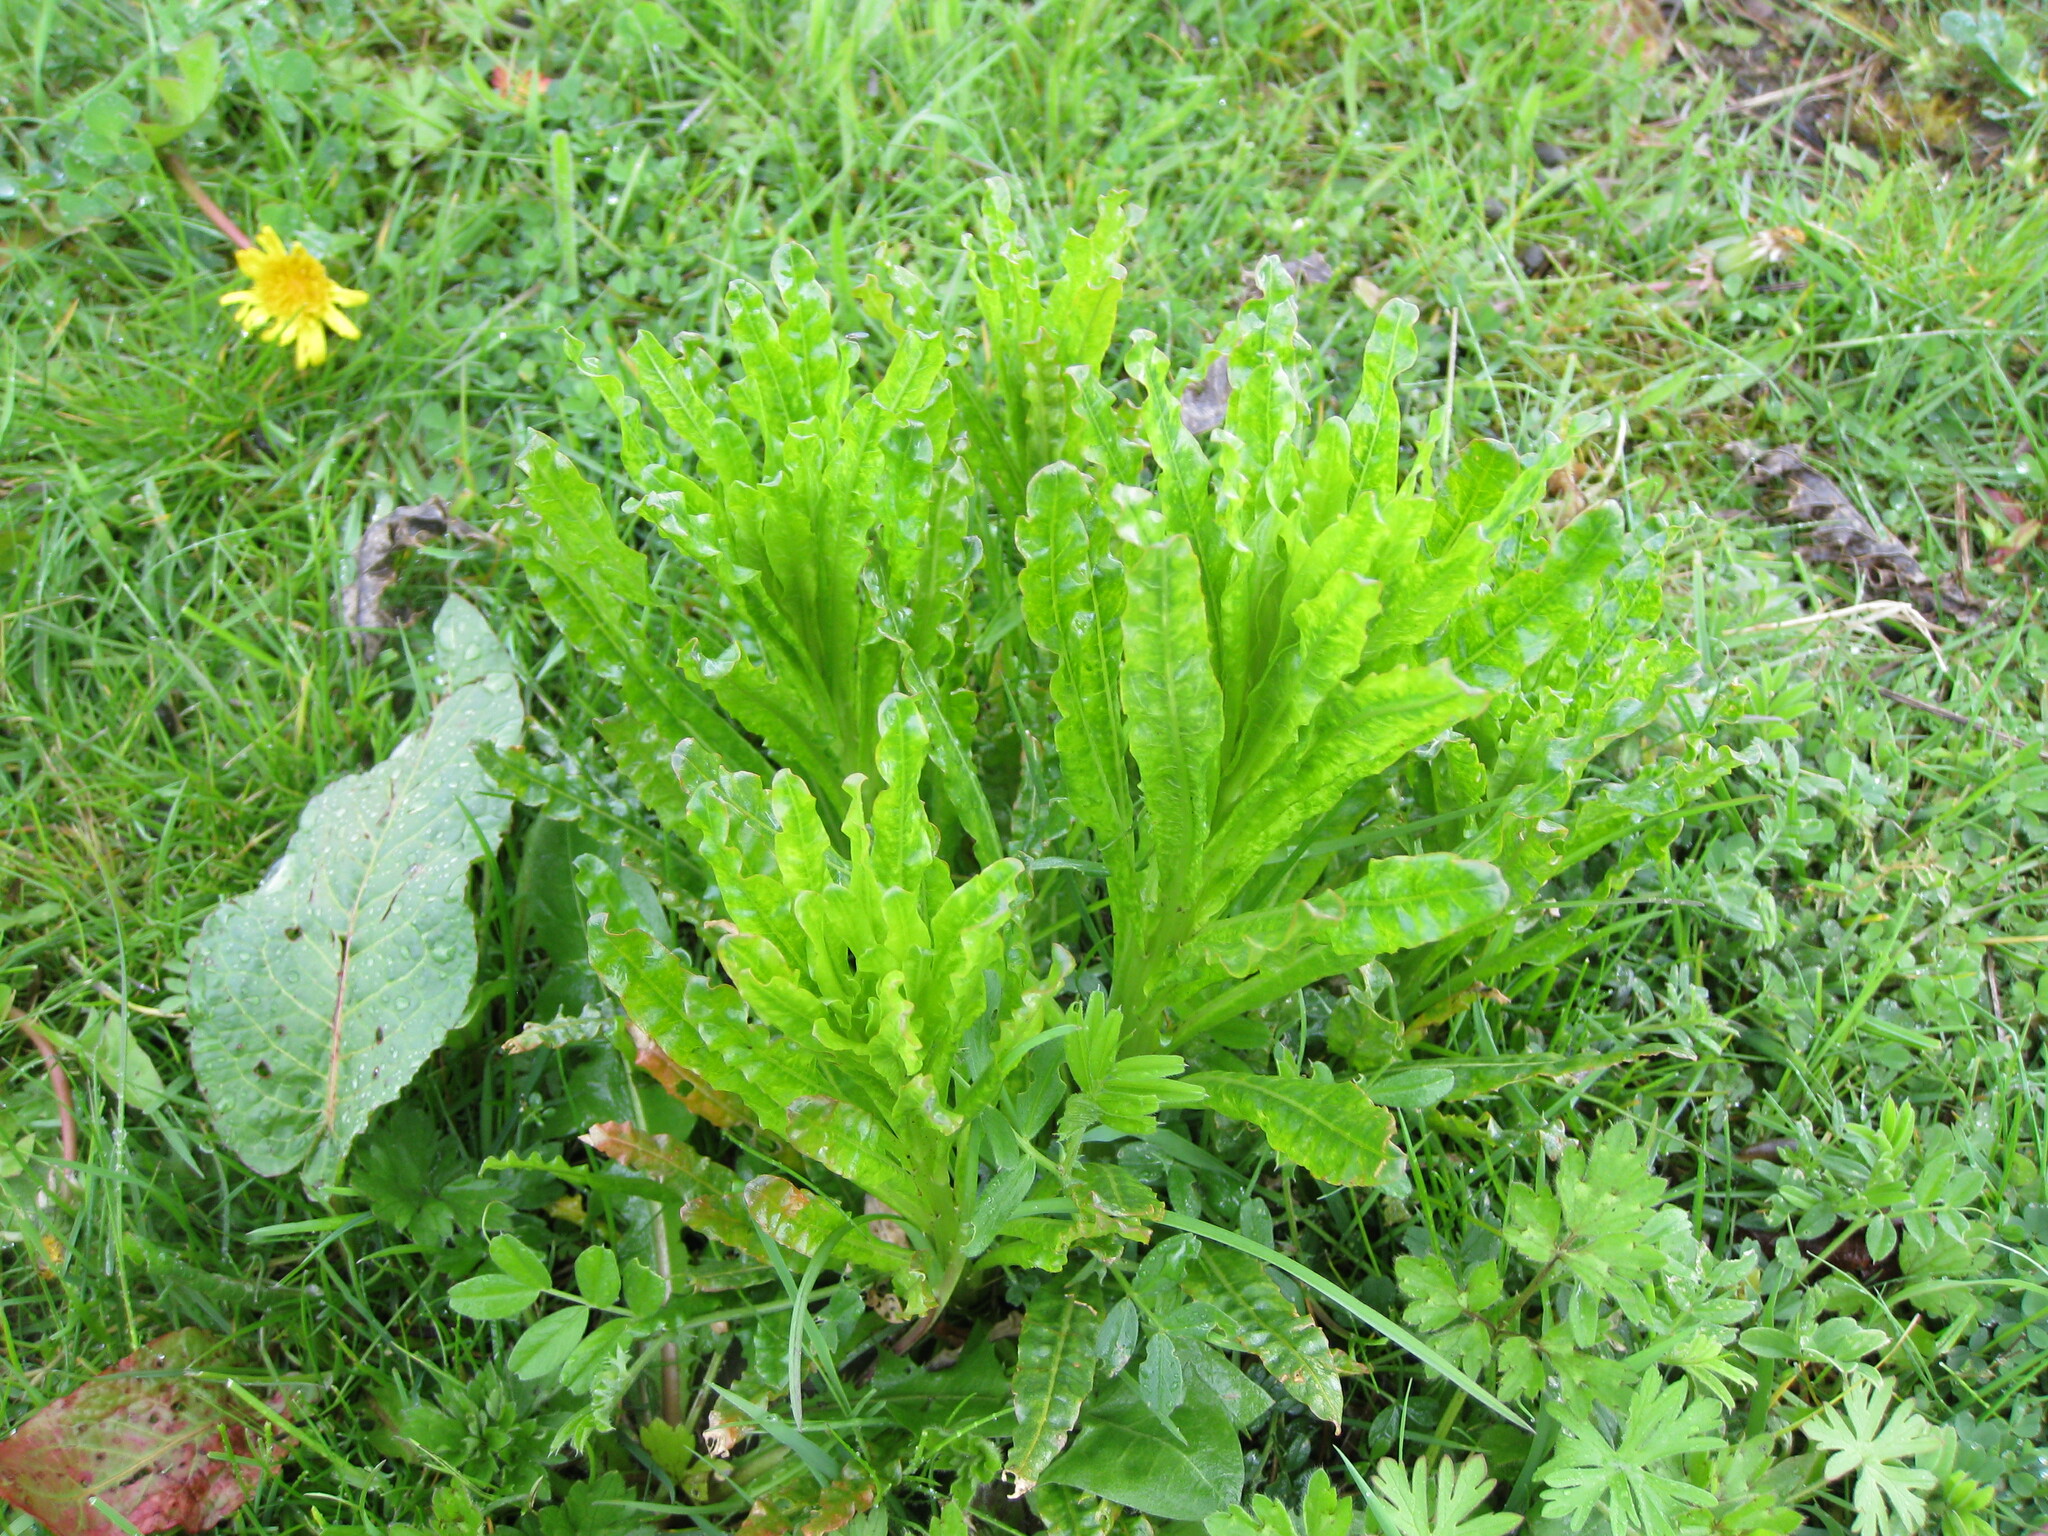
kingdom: Plantae
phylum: Tracheophyta
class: Magnoliopsida
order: Brassicales
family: Resedaceae
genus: Reseda
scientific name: Reseda luteola
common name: Weld
